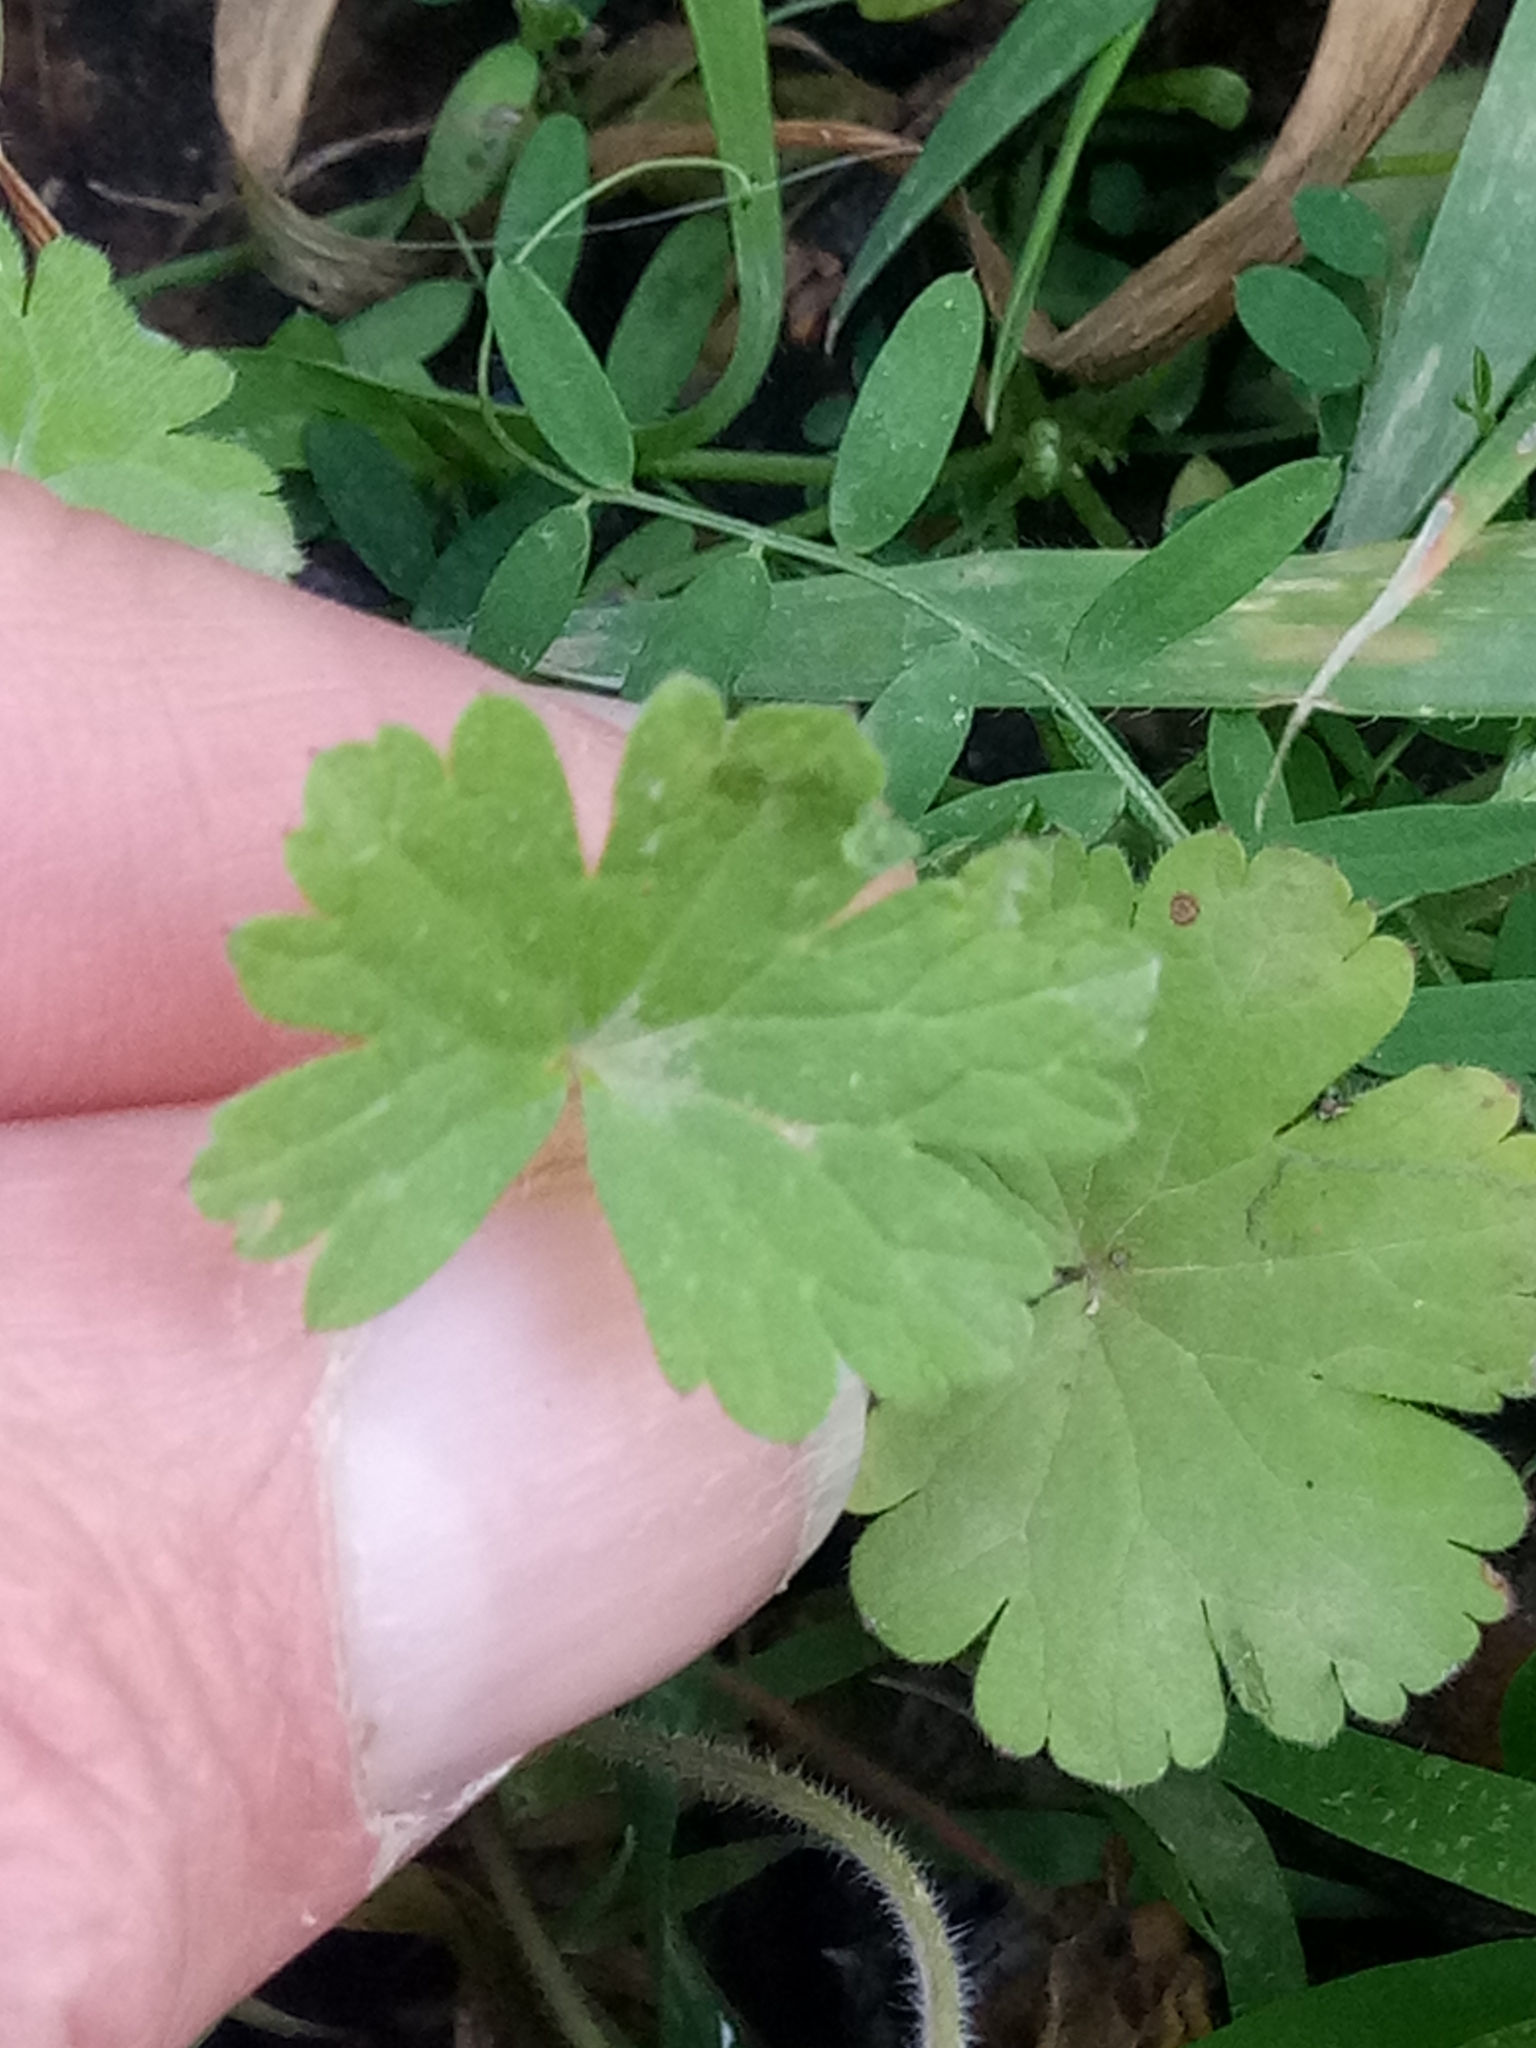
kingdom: Plantae
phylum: Tracheophyta
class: Magnoliopsida
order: Geraniales
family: Geraniaceae
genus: Geranium
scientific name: Geranium rotundifolium
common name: Round-leaved crane's-bill
